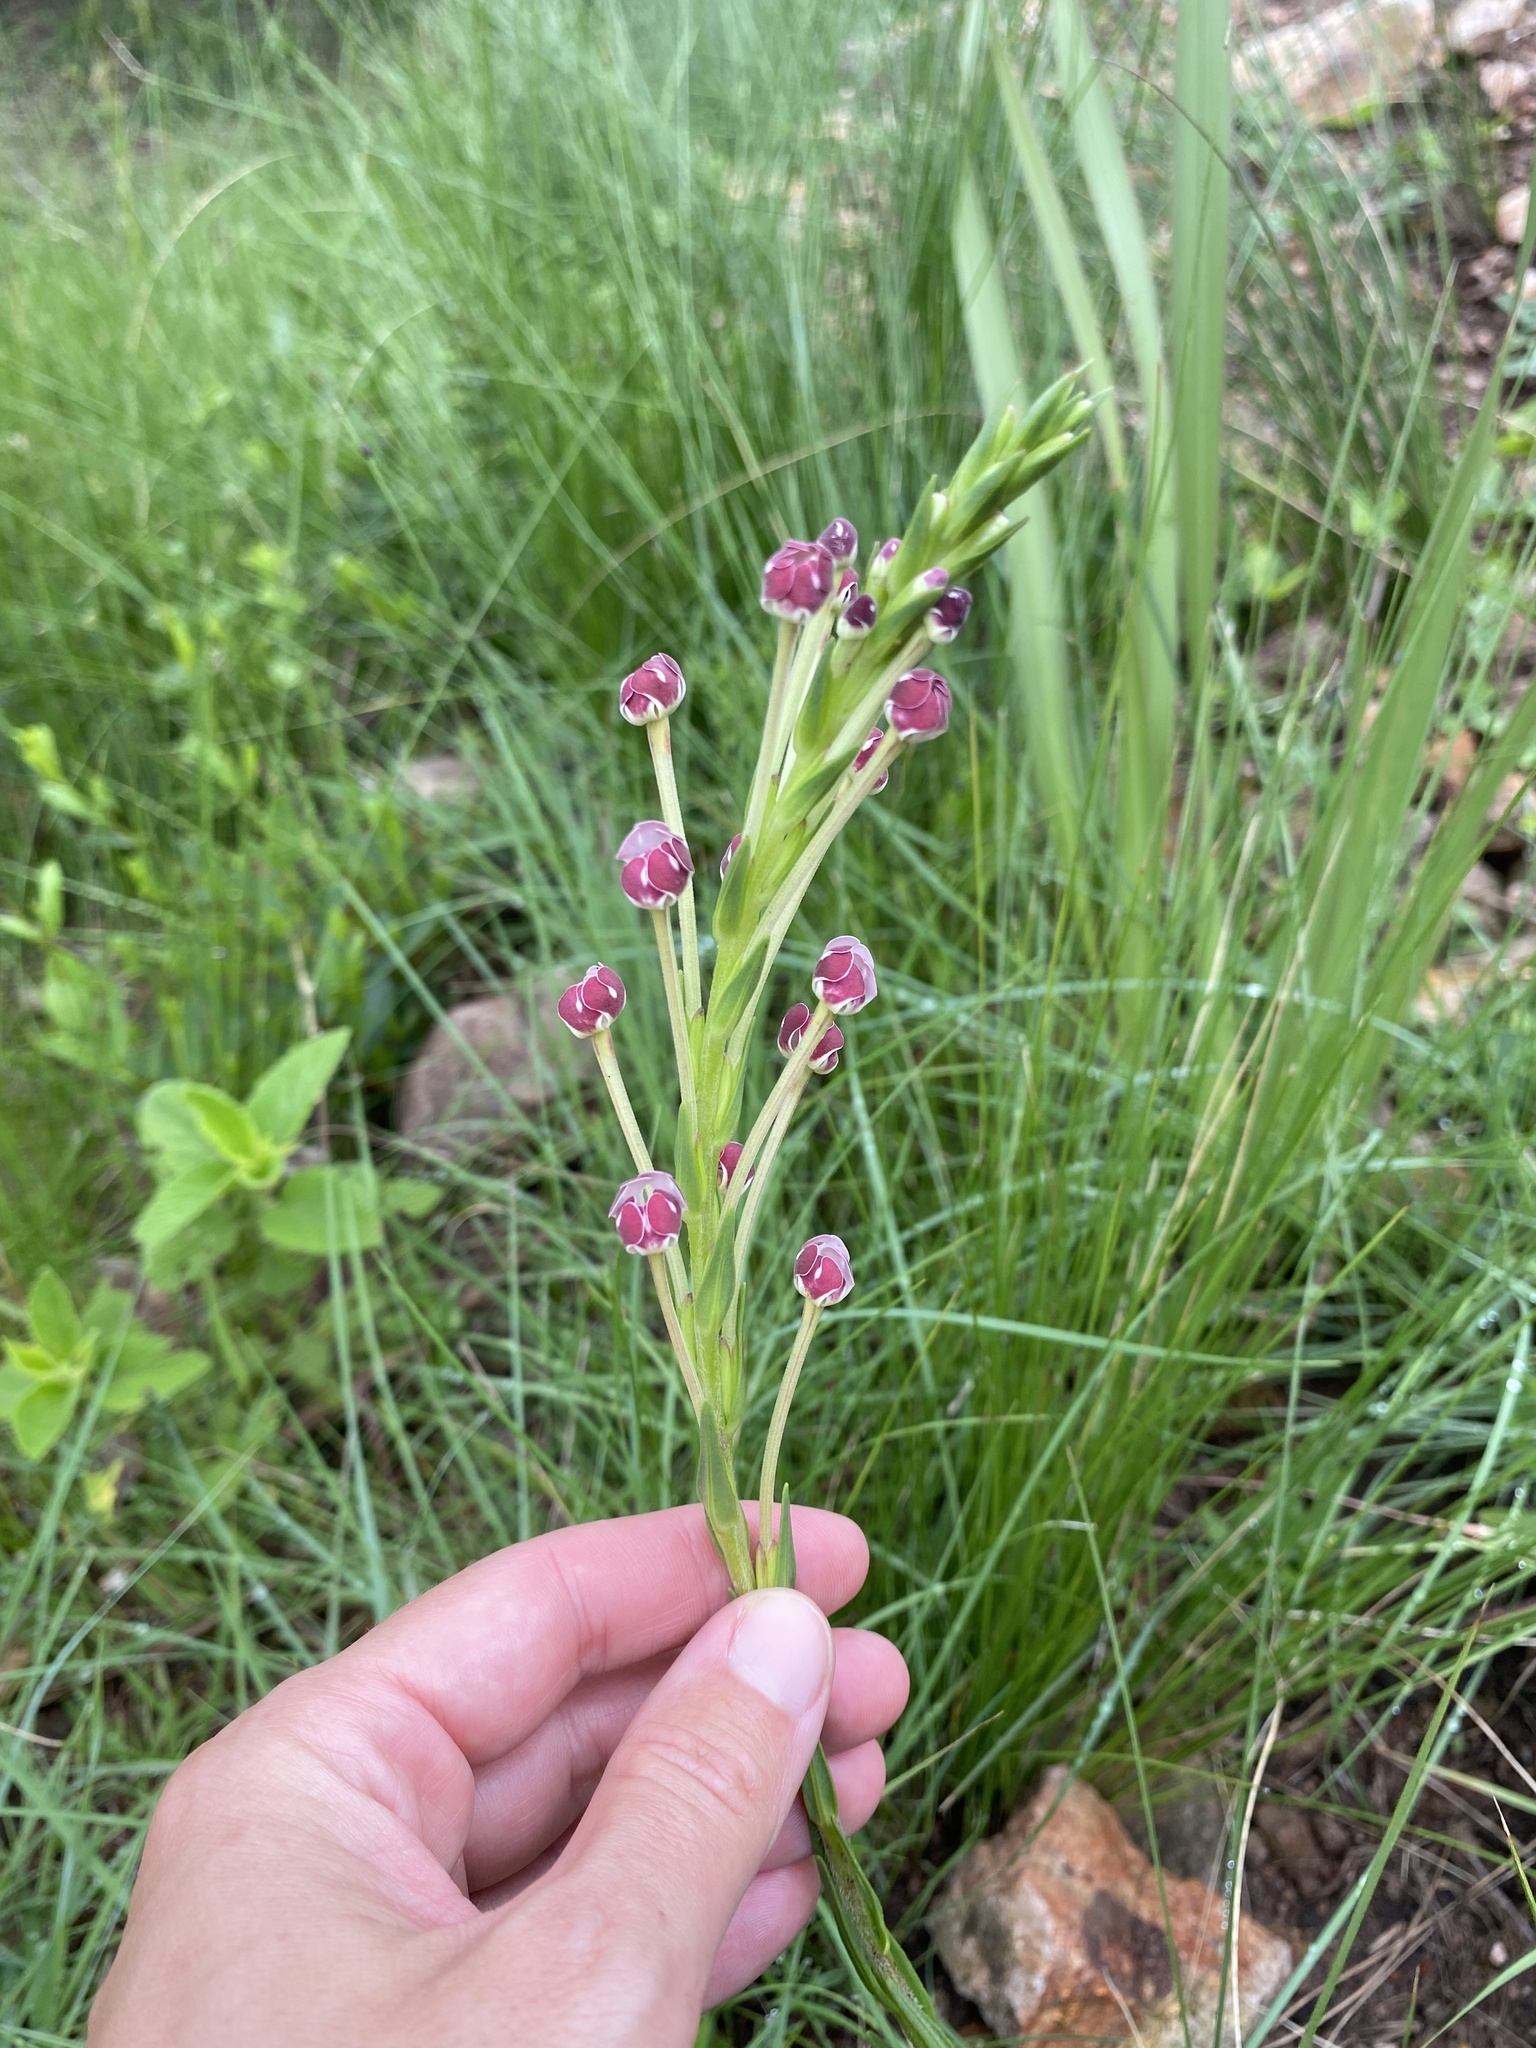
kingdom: Plantae
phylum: Tracheophyta
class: Magnoliopsida
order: Lamiales
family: Scrophulariaceae
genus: Zaluzianskya
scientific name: Zaluzianskya capensis
